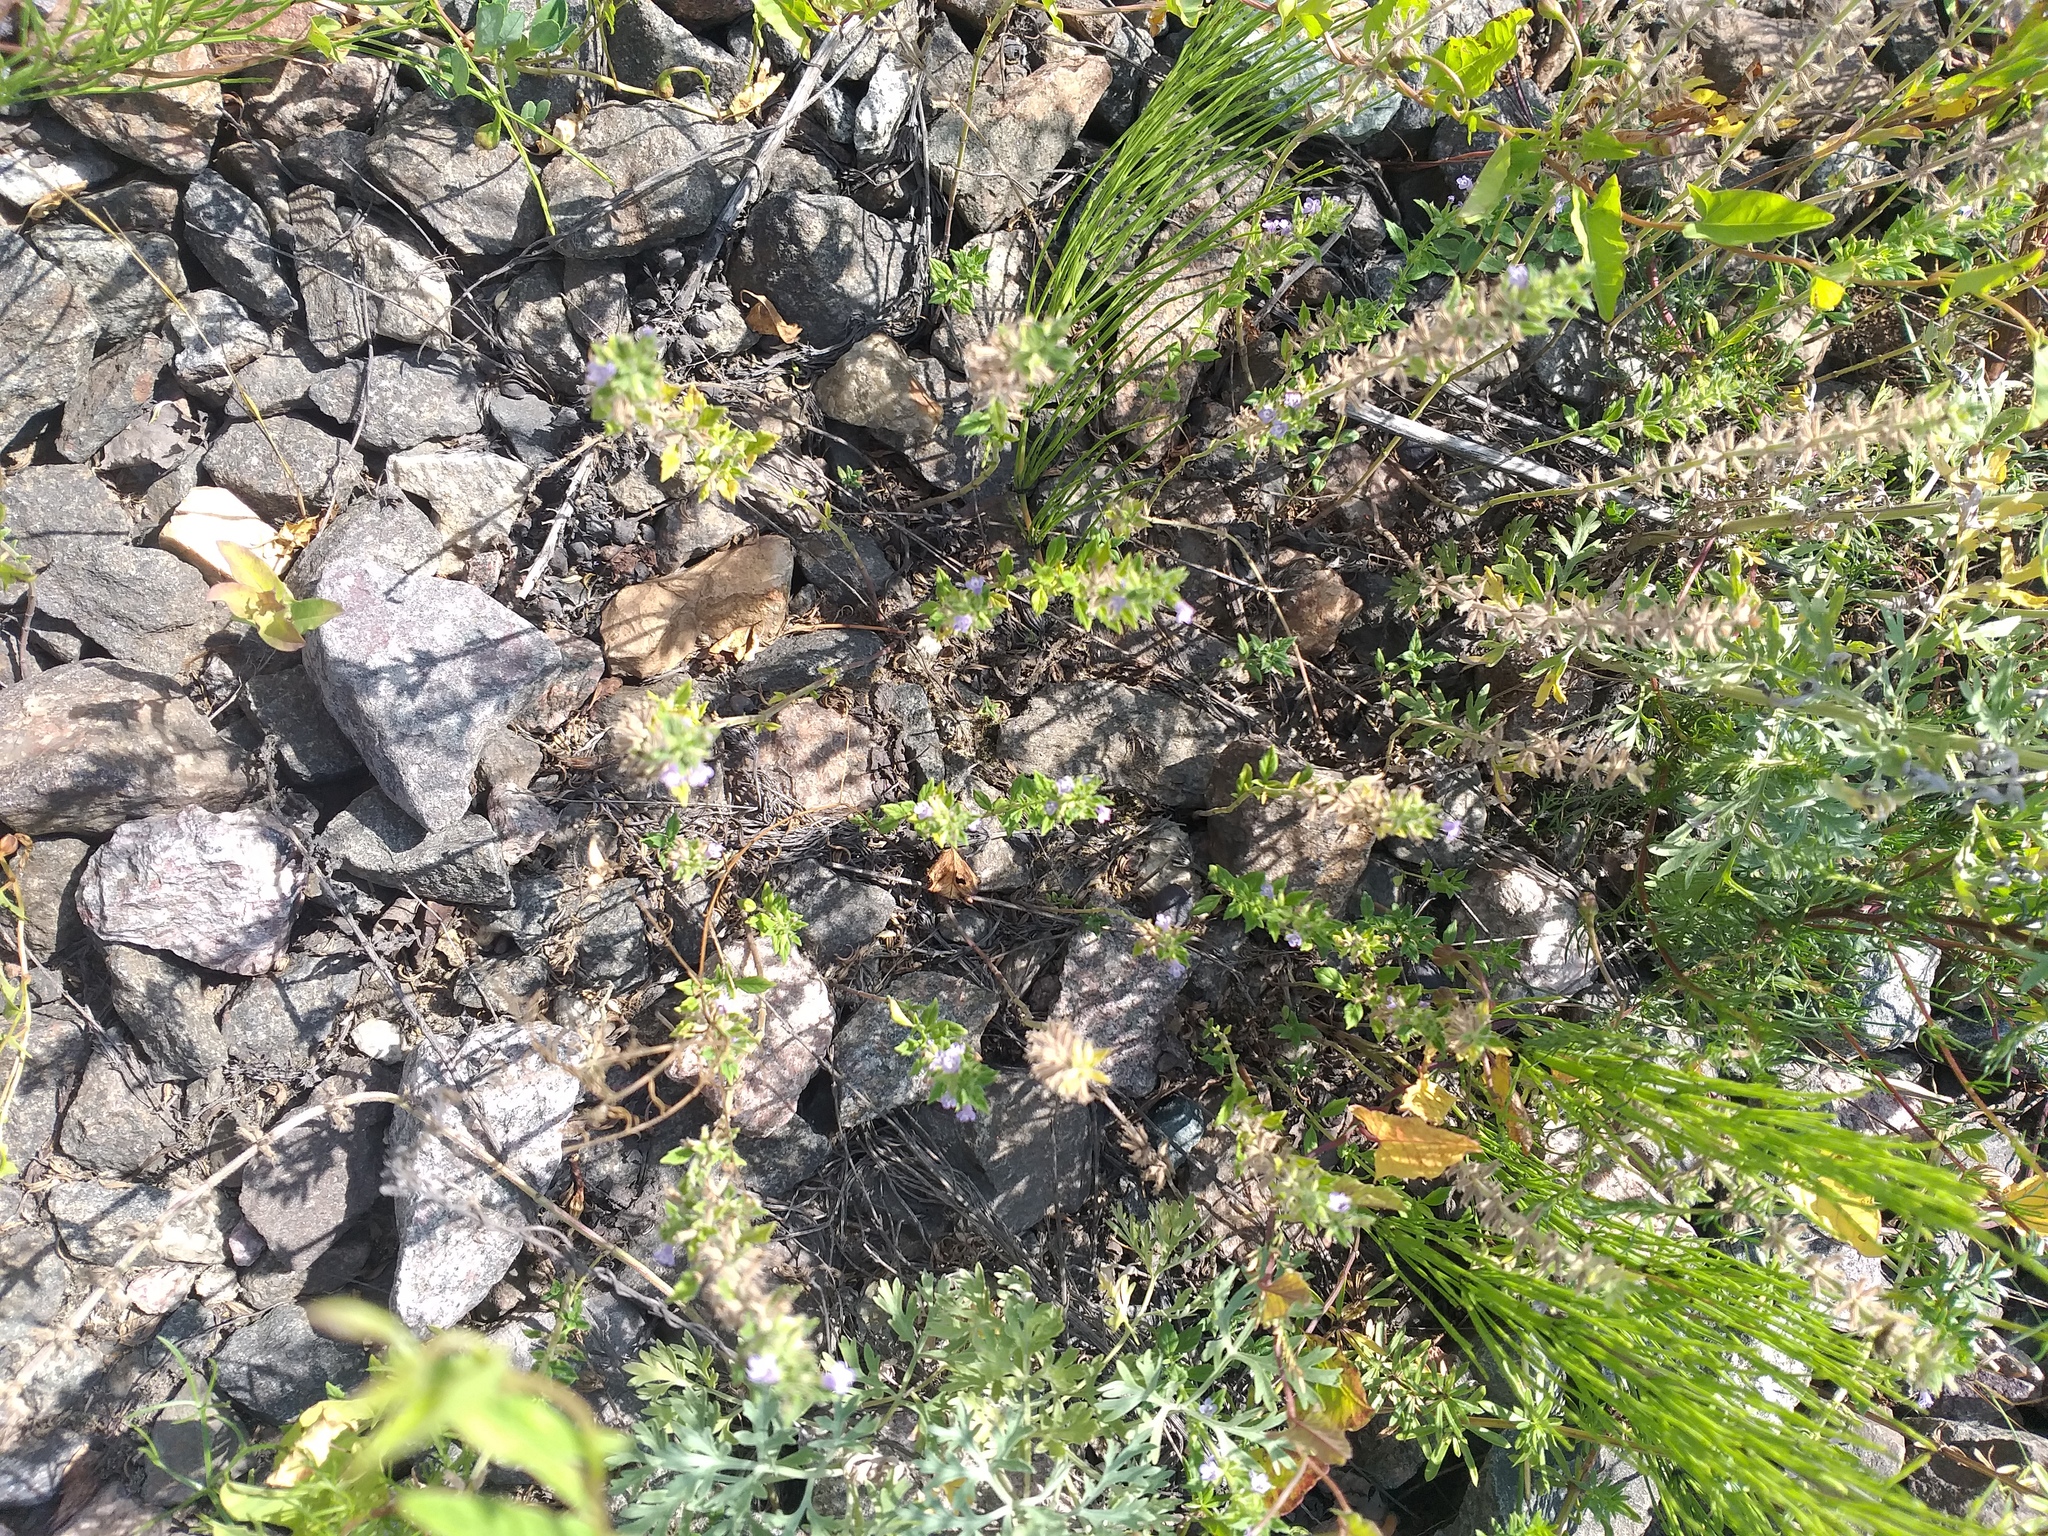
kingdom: Plantae
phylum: Tracheophyta
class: Magnoliopsida
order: Lamiales
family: Lamiaceae
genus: Clinopodium
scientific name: Clinopodium acinos
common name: Basil thyme
